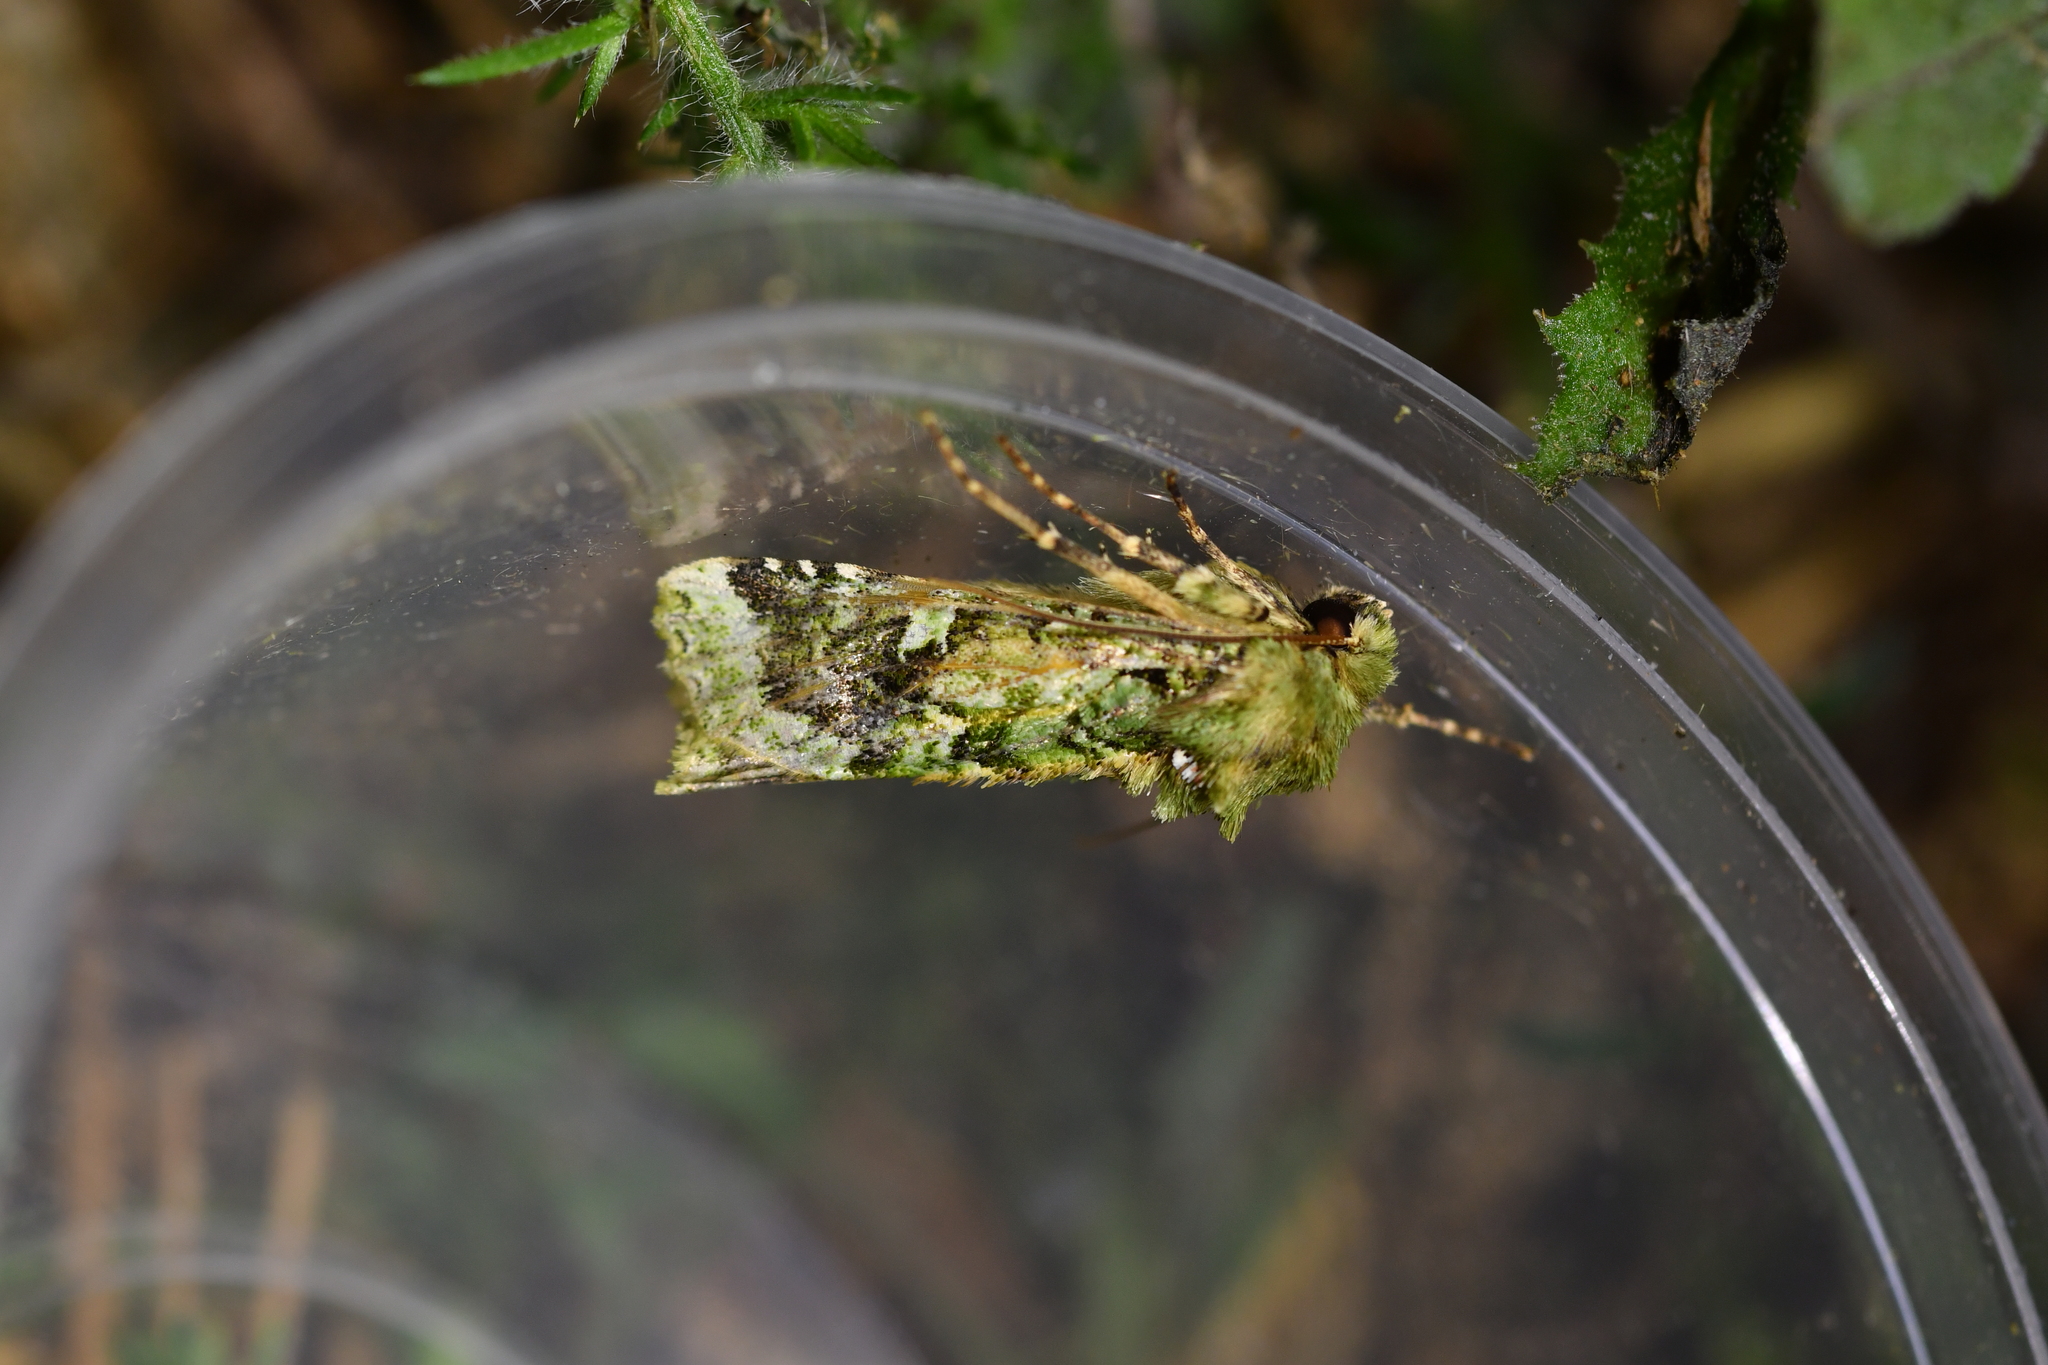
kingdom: Animalia
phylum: Arthropoda
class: Insecta
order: Lepidoptera
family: Noctuidae
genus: Feredayia
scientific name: Feredayia grammosa
